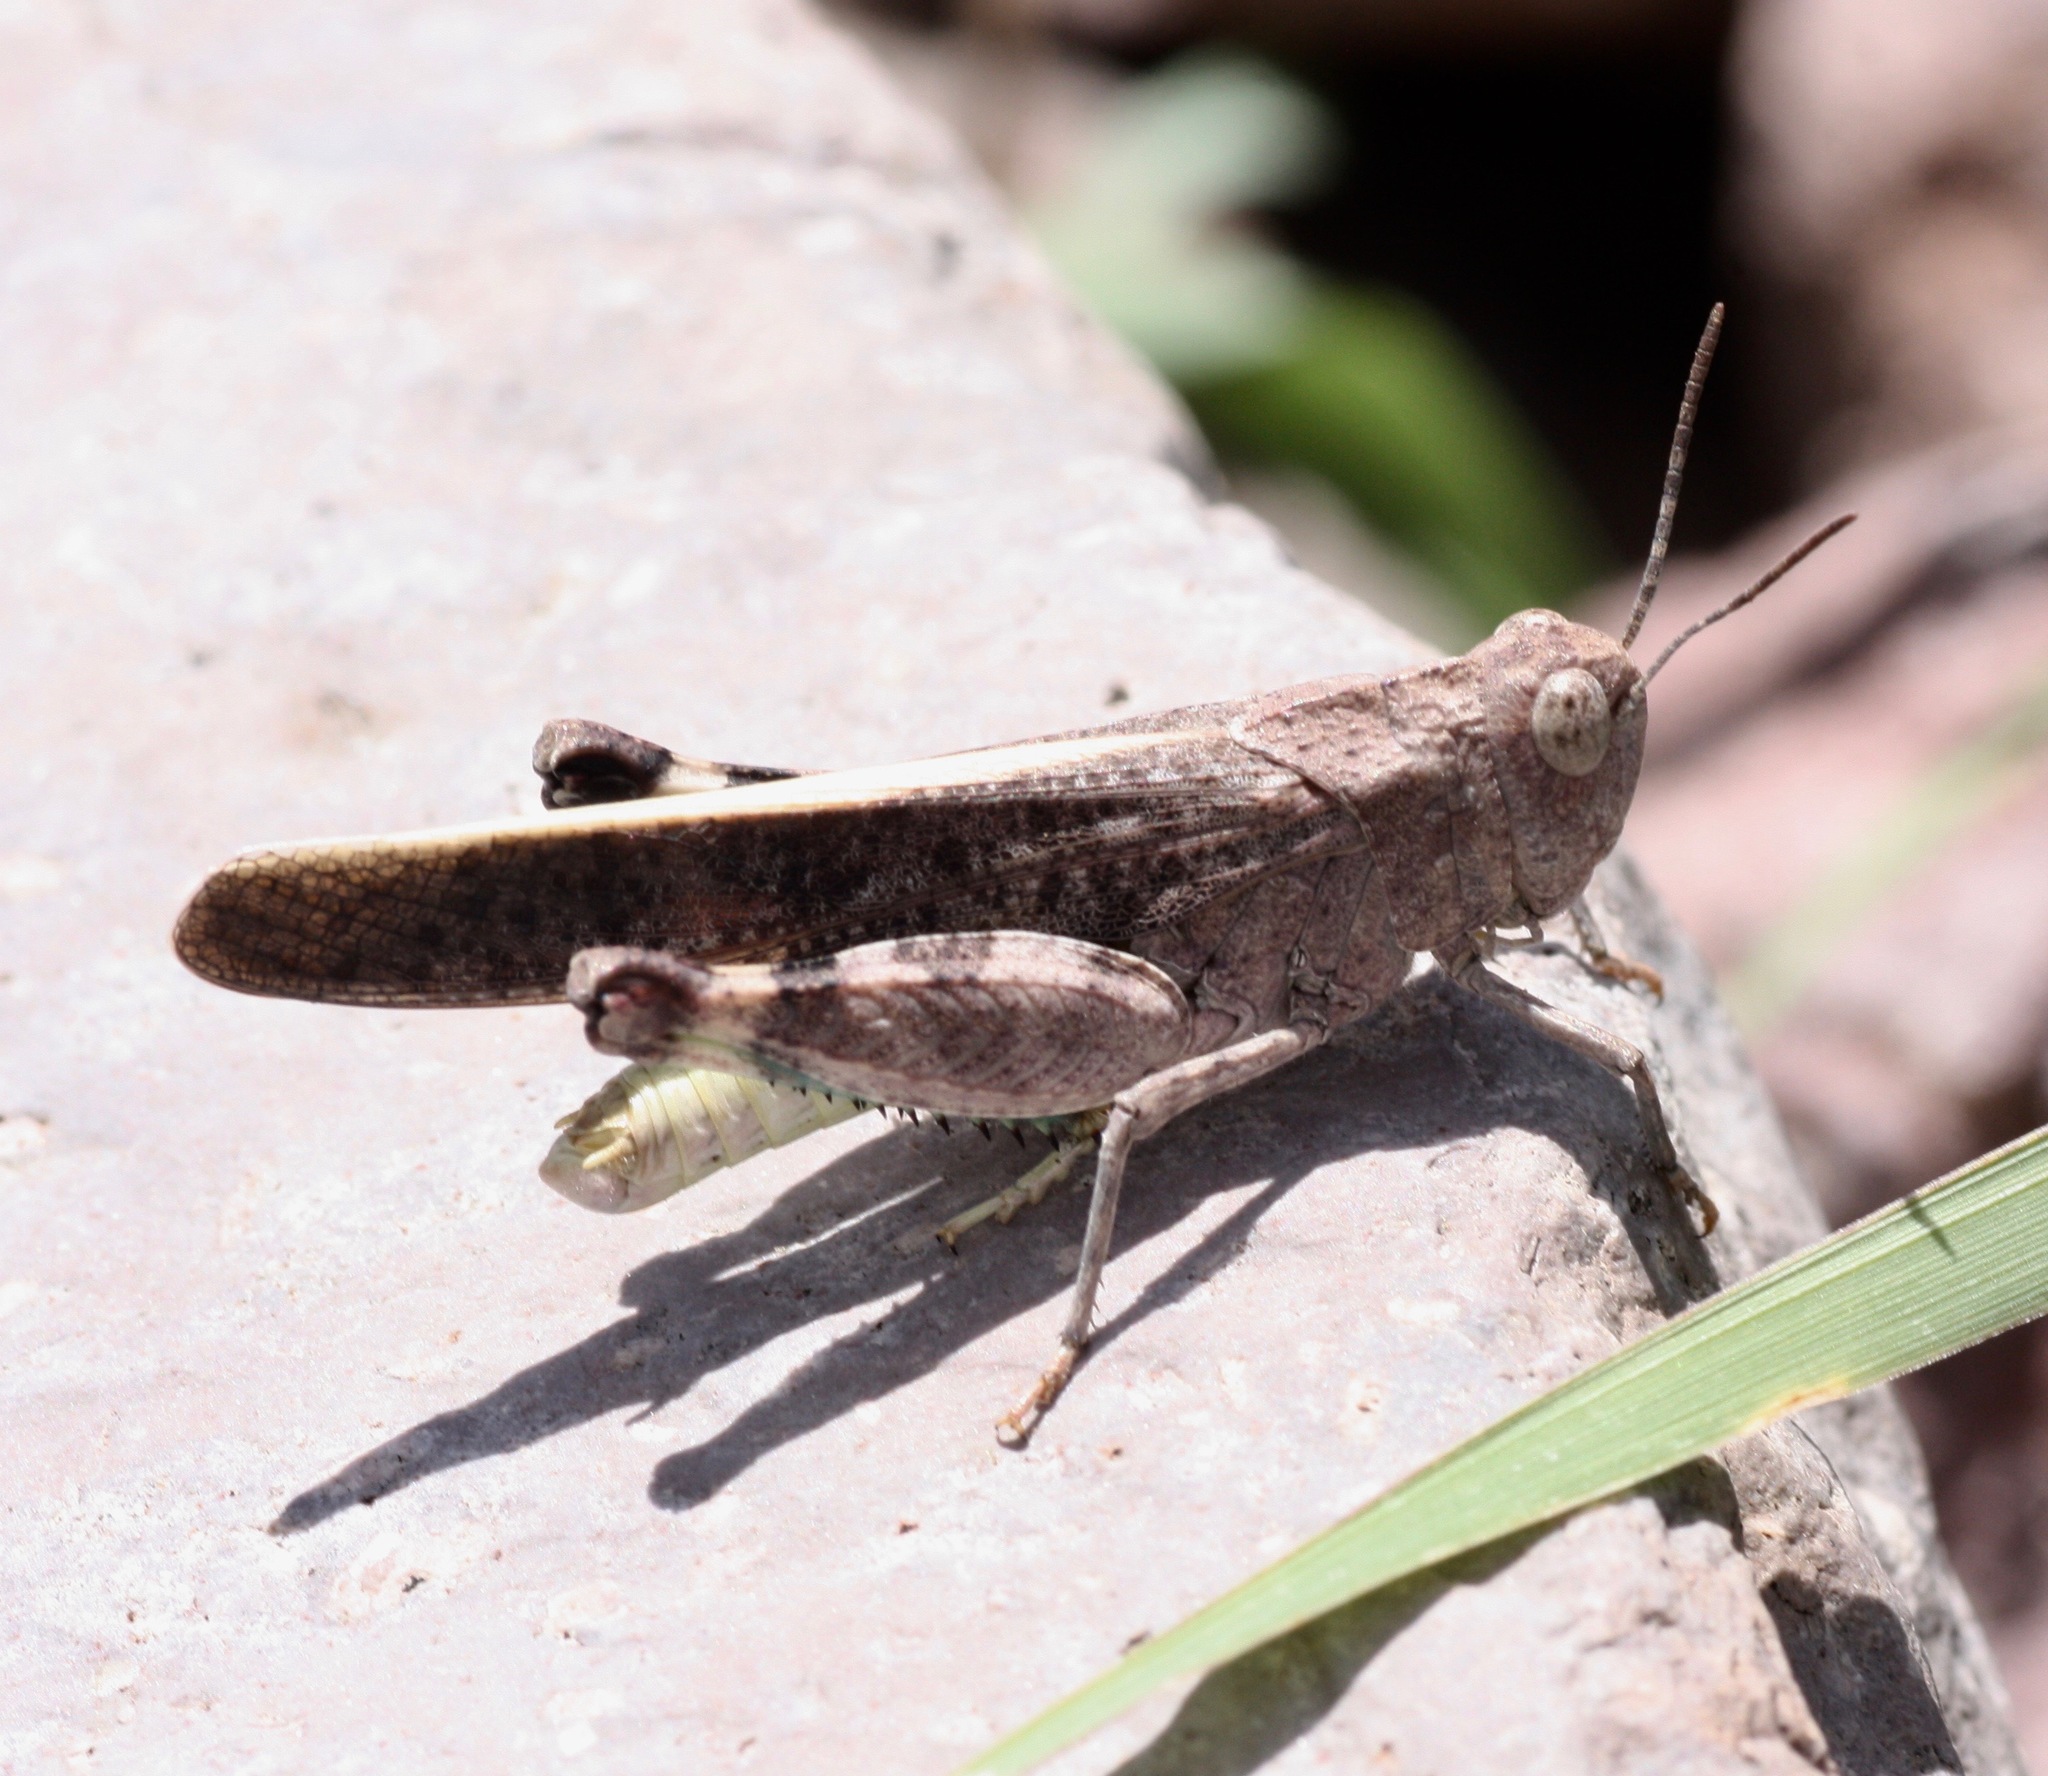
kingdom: Animalia
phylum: Arthropoda
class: Insecta
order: Orthoptera
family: Acrididae
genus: Arphia
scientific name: Arphia conspersa
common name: Speckle-winged rangeland grasshopper
